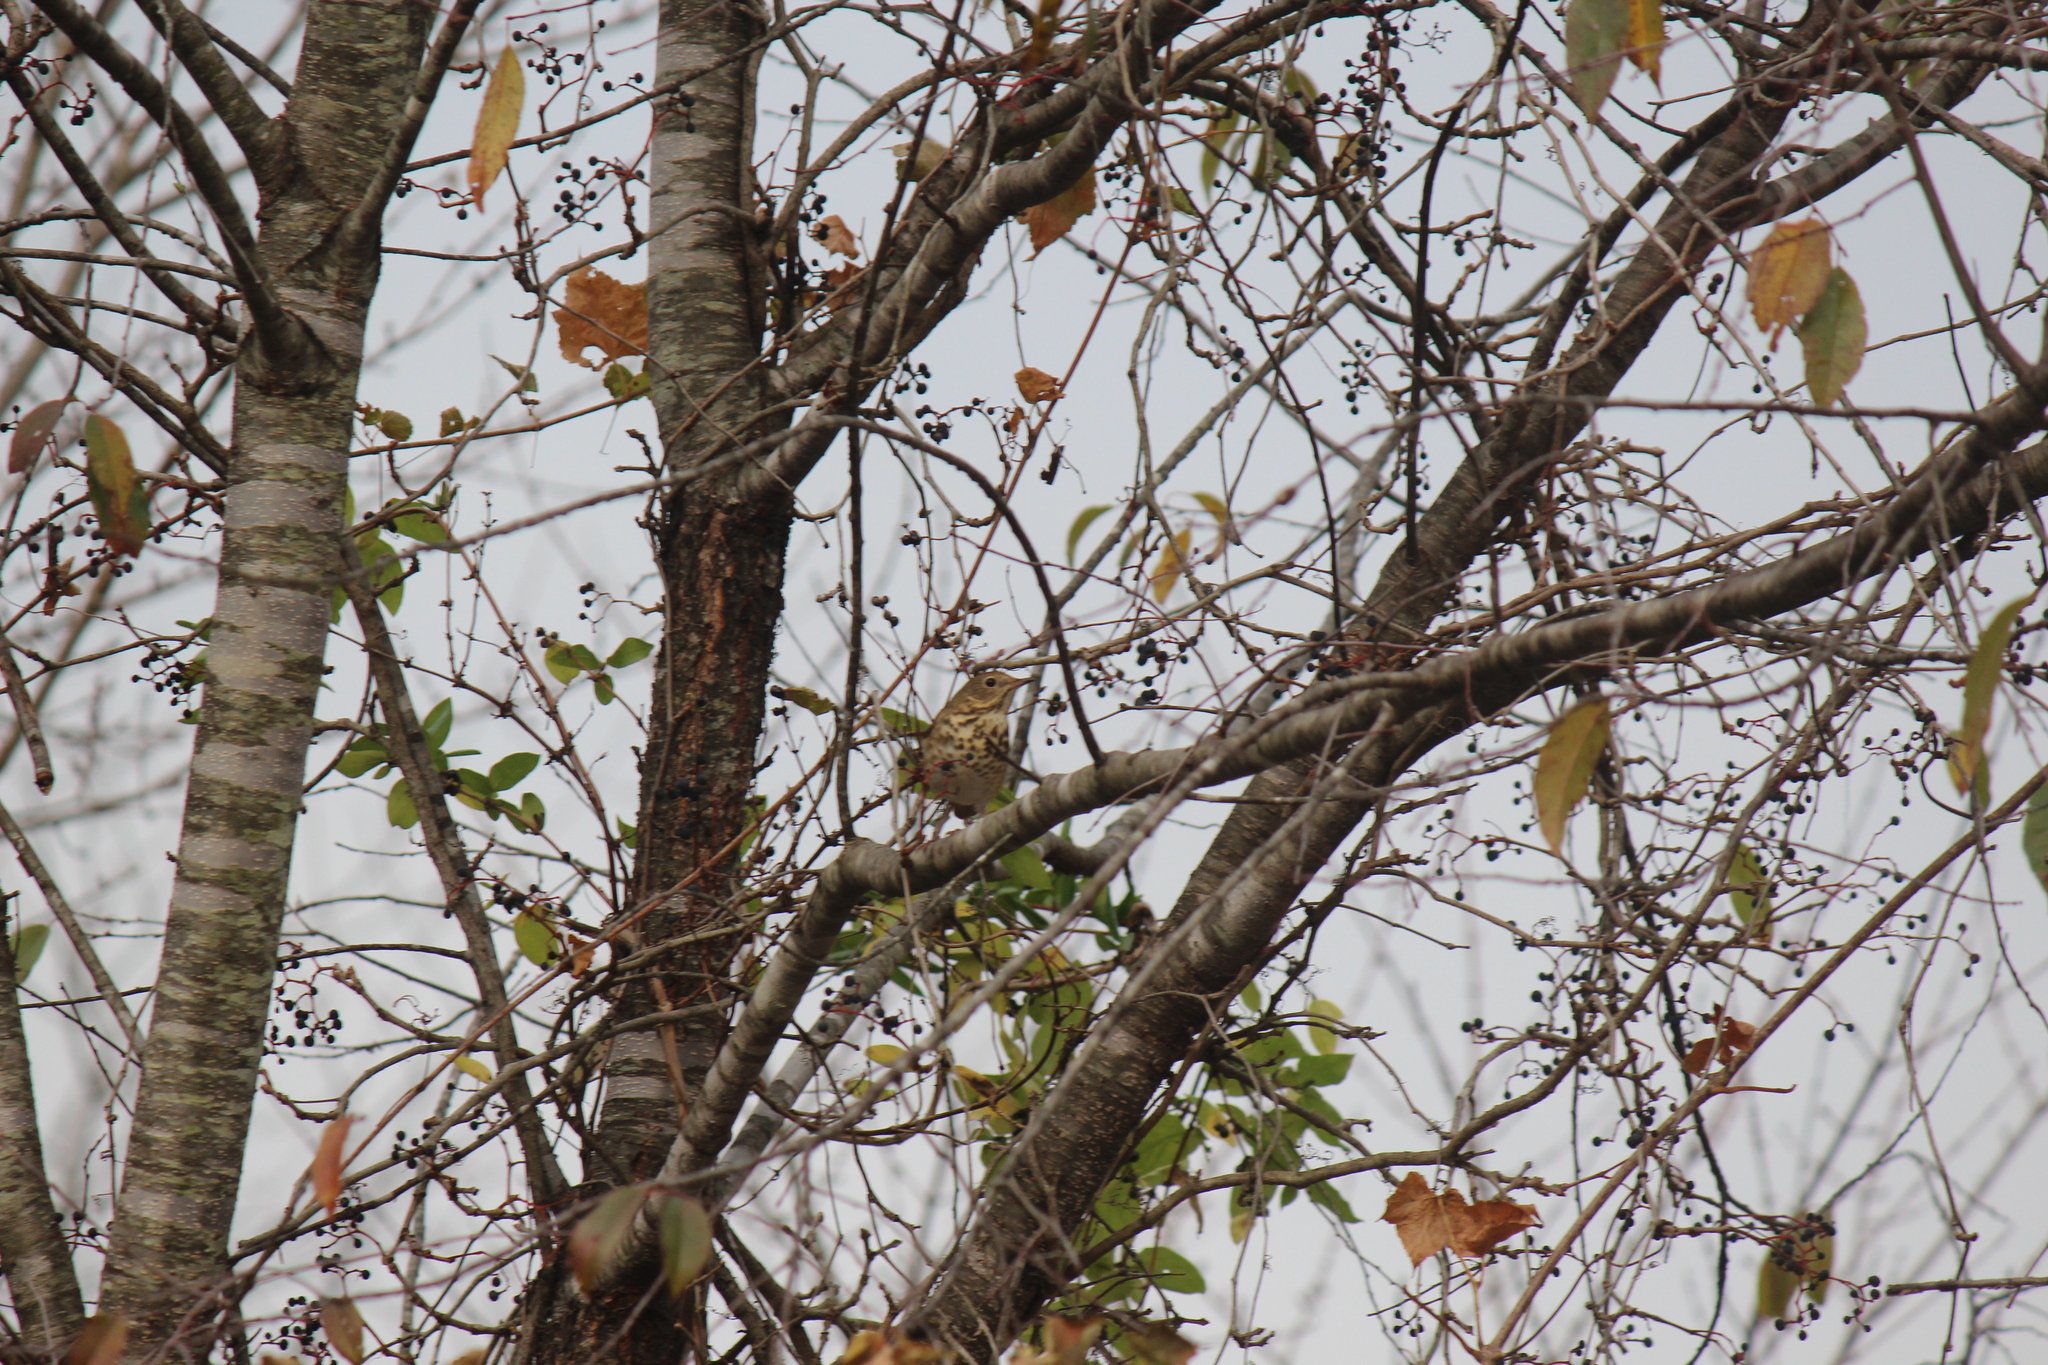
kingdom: Animalia
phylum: Chordata
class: Aves
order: Passeriformes
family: Turdidae
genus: Catharus
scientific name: Catharus guttatus
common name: Hermit thrush
